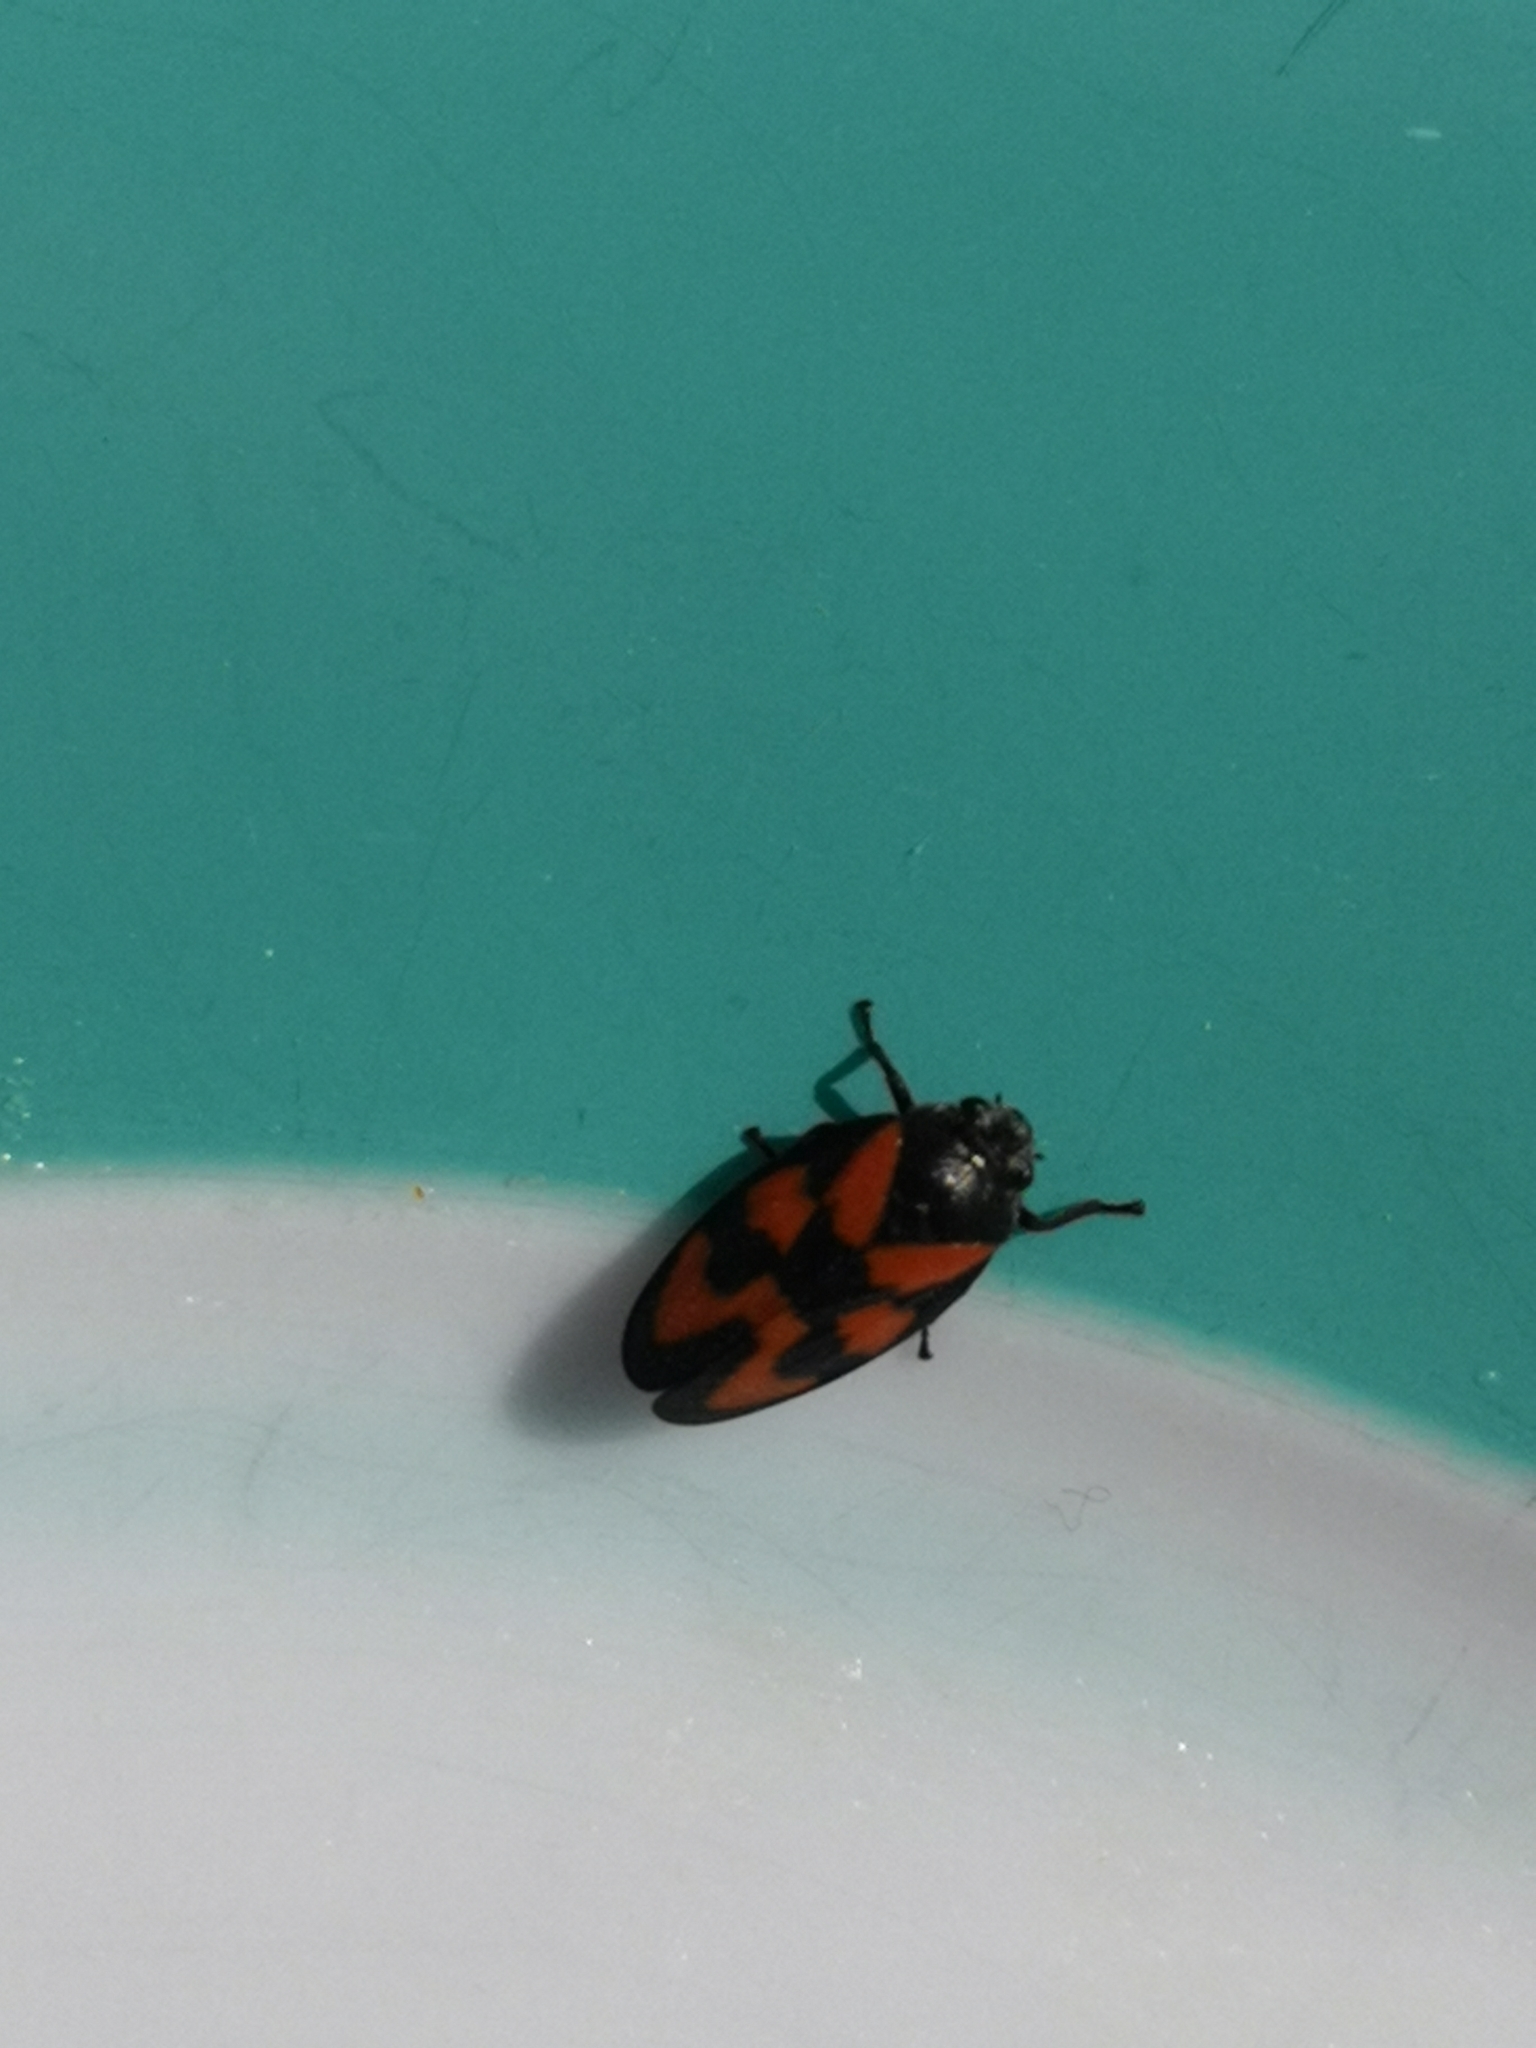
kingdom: Animalia
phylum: Arthropoda
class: Insecta
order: Hemiptera
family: Cercopidae
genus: Cercopis
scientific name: Cercopis vulnerata
